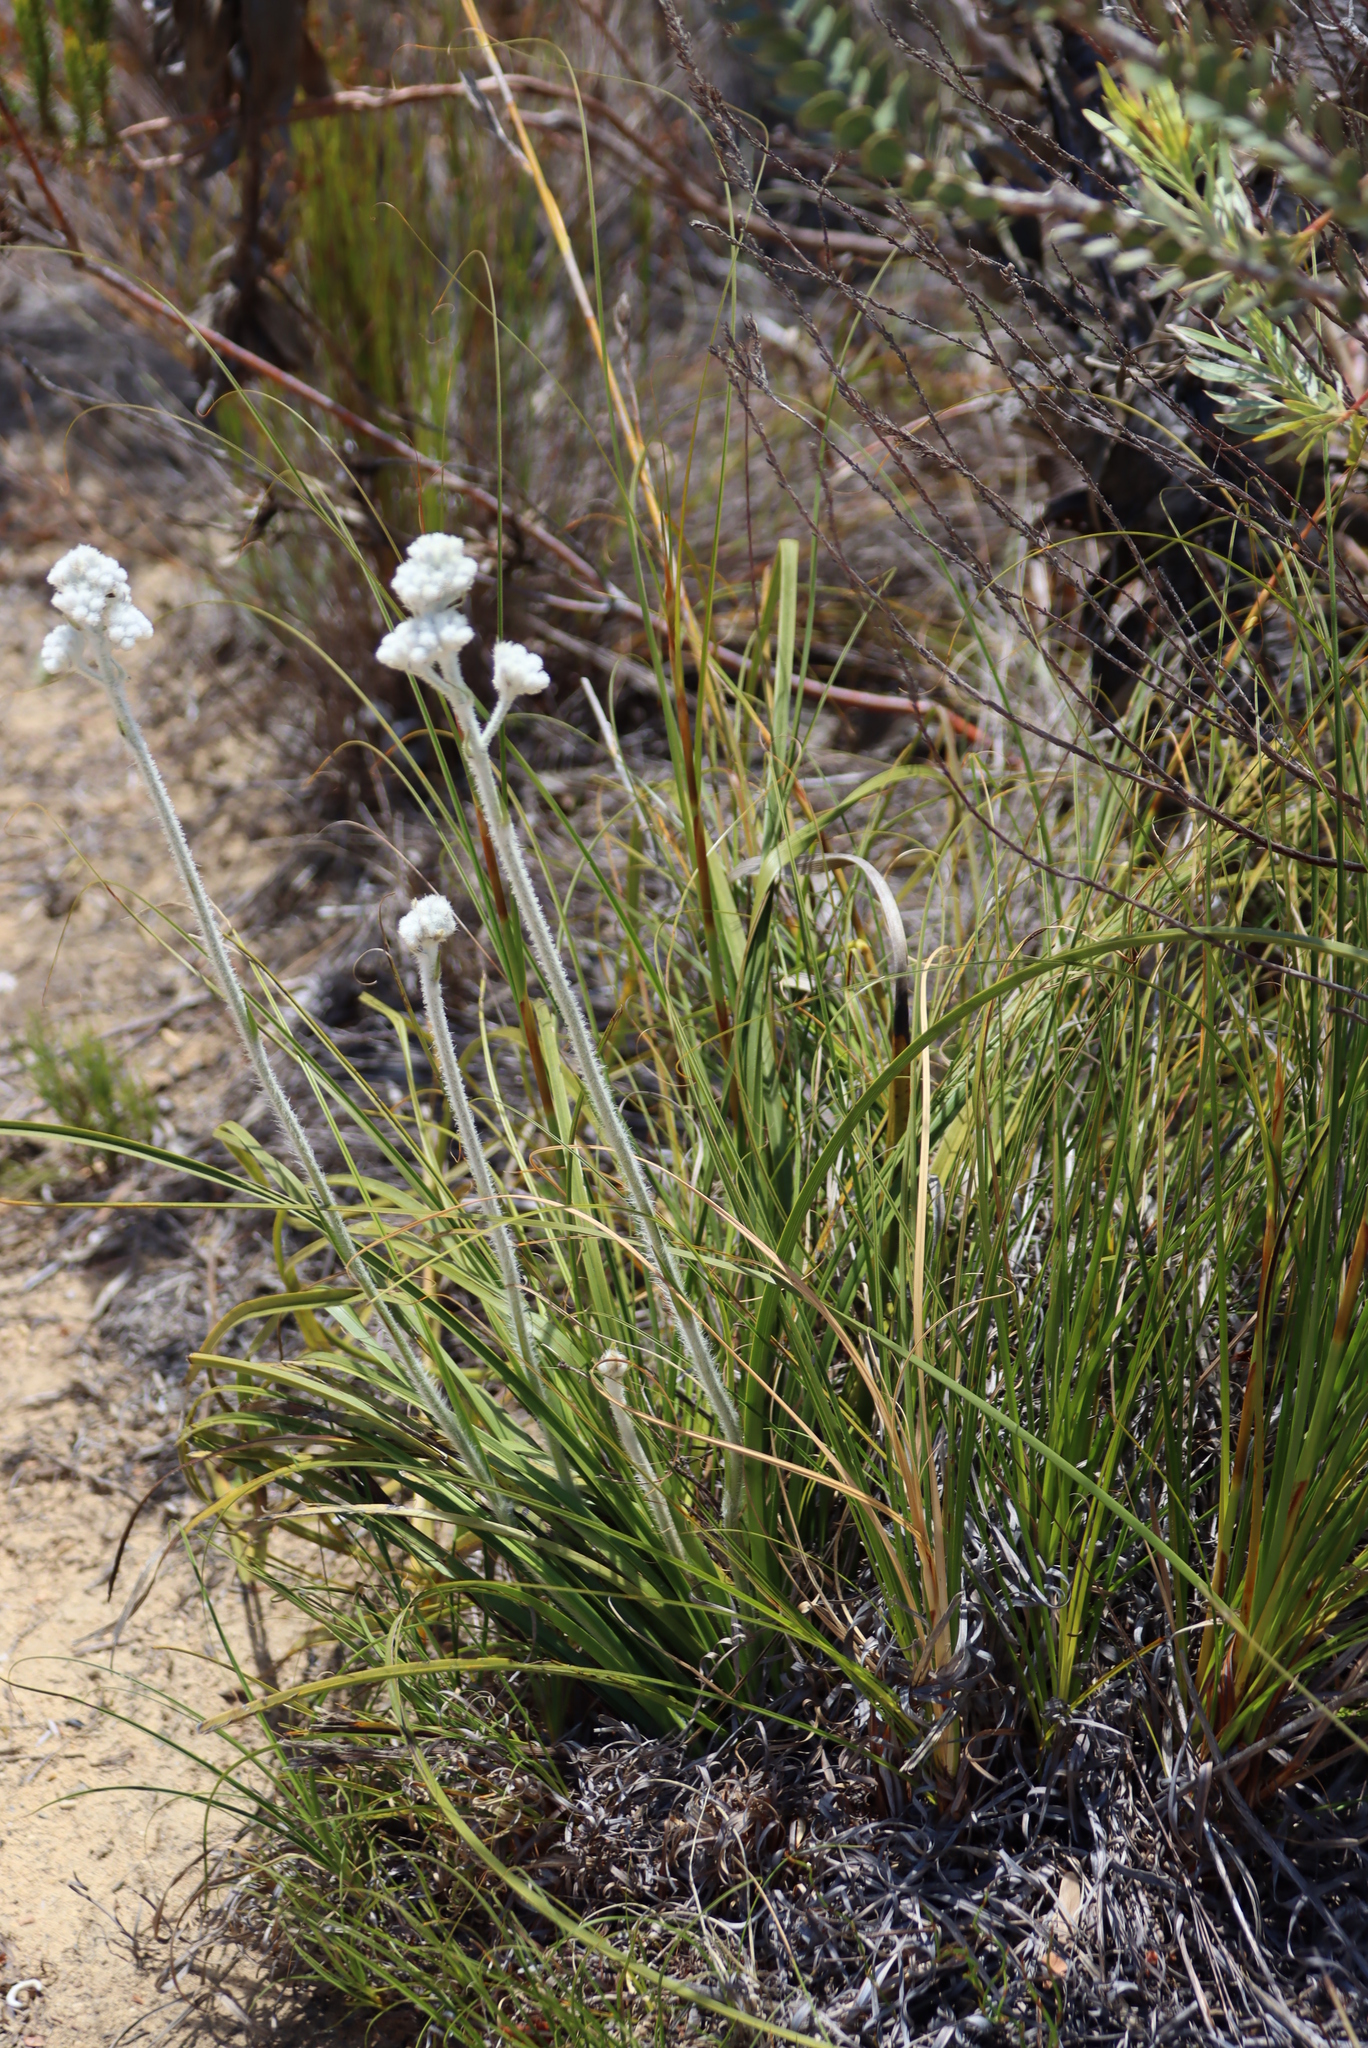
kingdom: Plantae
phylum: Tracheophyta
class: Liliopsida
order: Asparagales
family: Lanariaceae
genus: Lanaria
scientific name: Lanaria lanata
